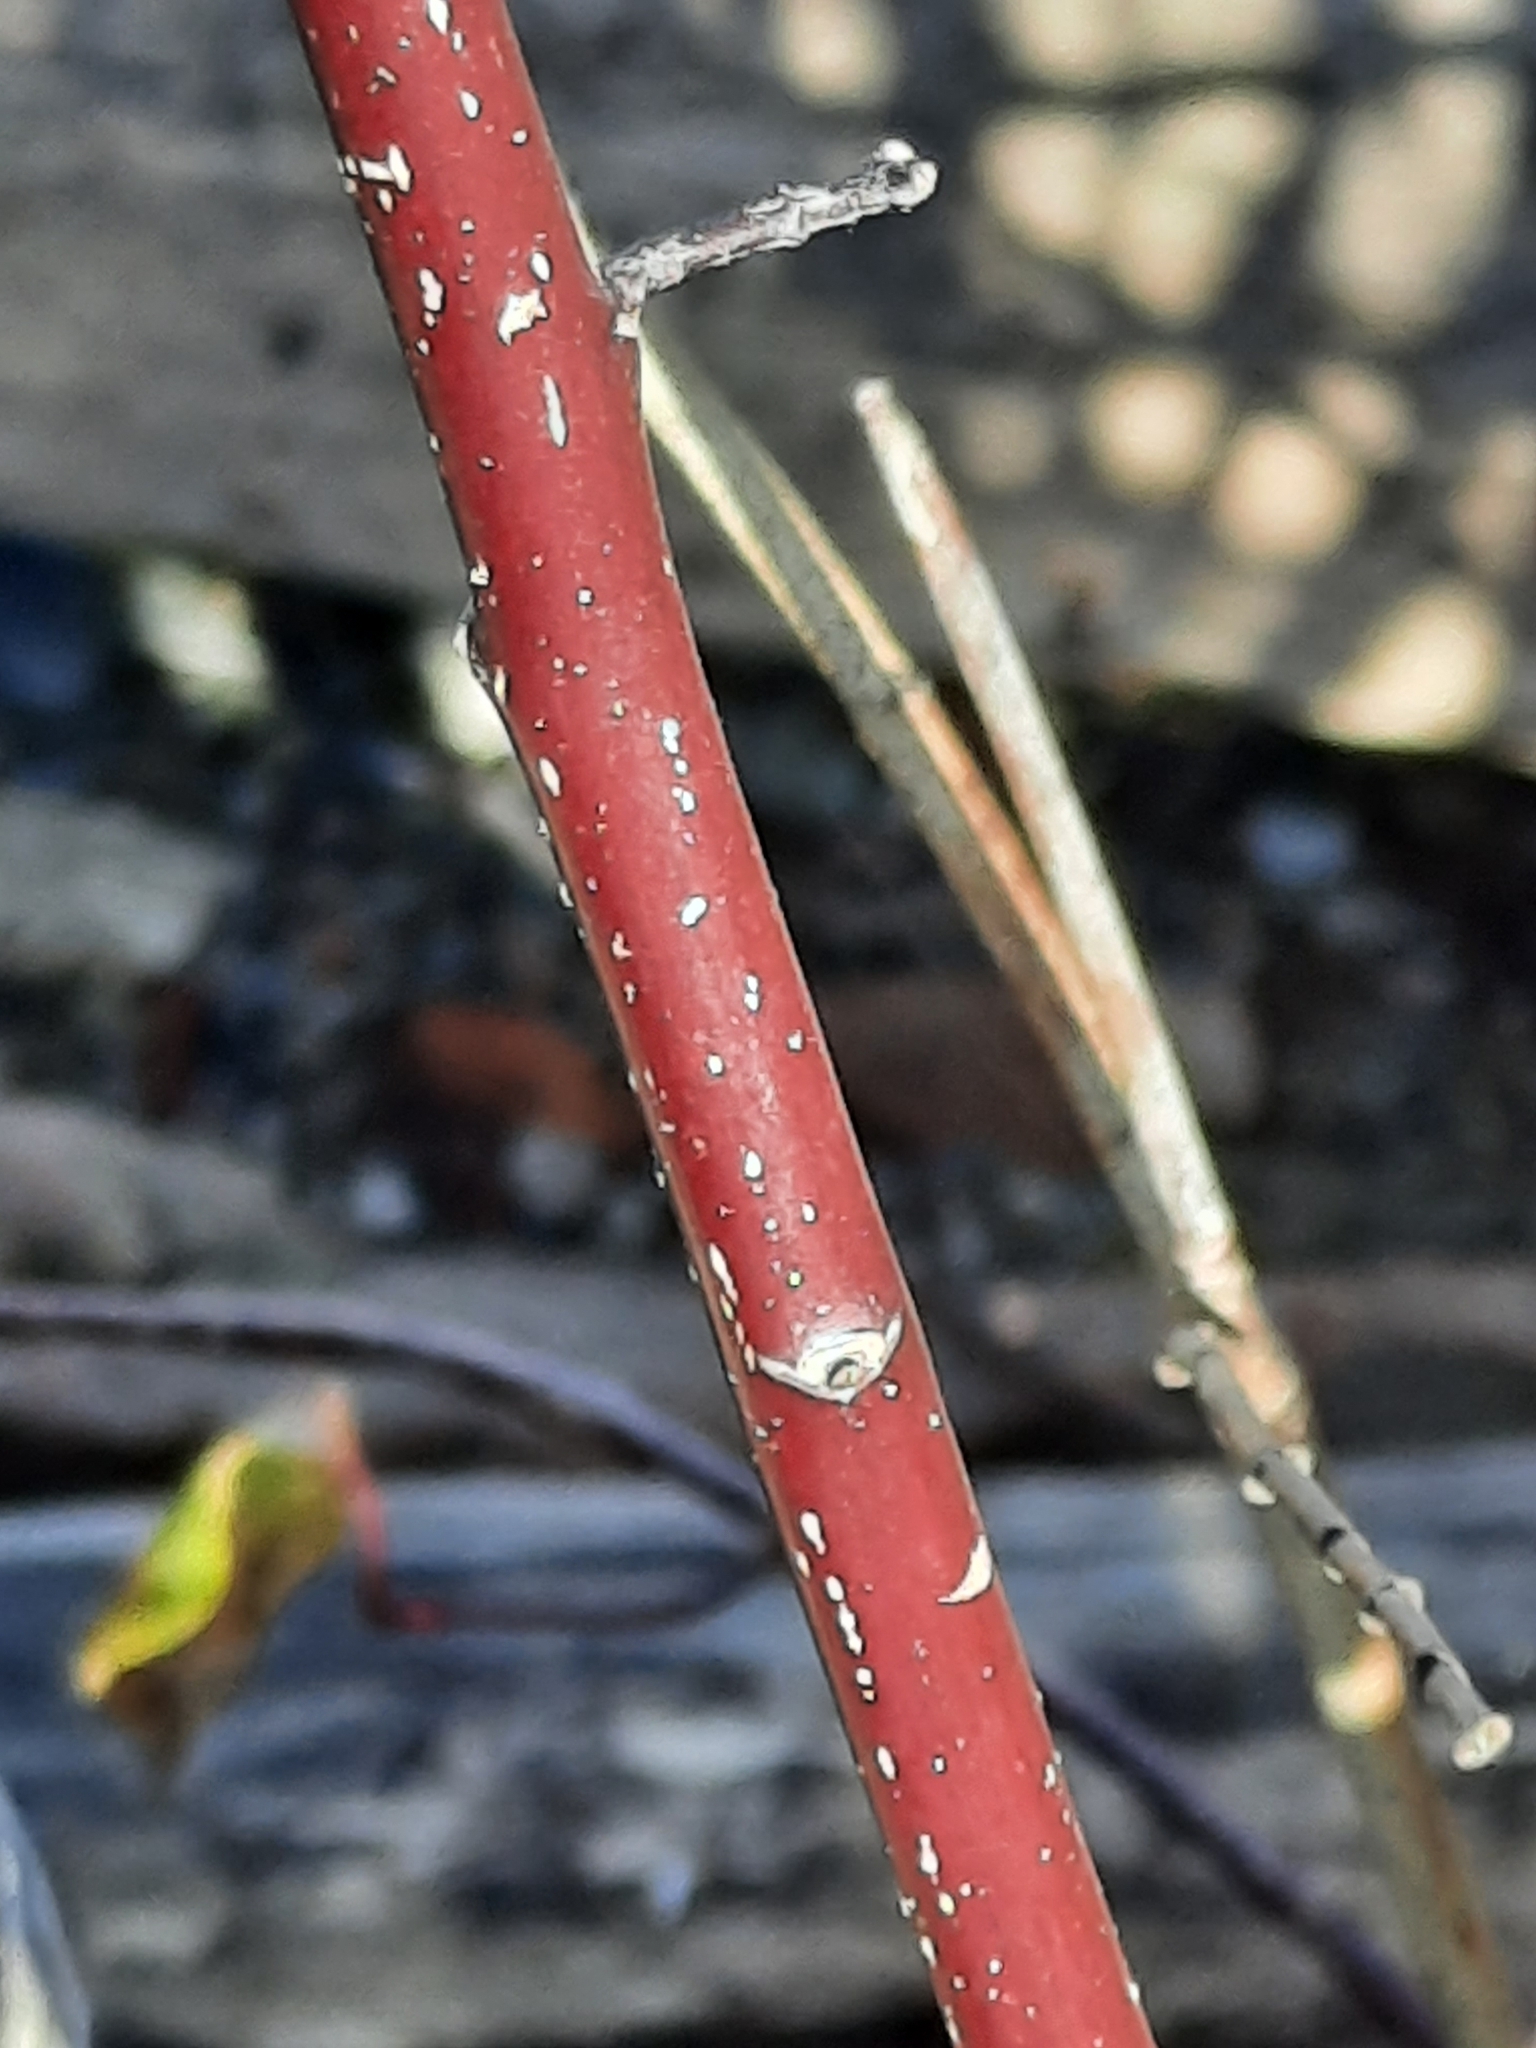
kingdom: Plantae
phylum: Tracheophyta
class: Magnoliopsida
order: Cornales
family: Cornaceae
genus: Cornus
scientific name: Cornus sericea
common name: Red-osier dogwood
